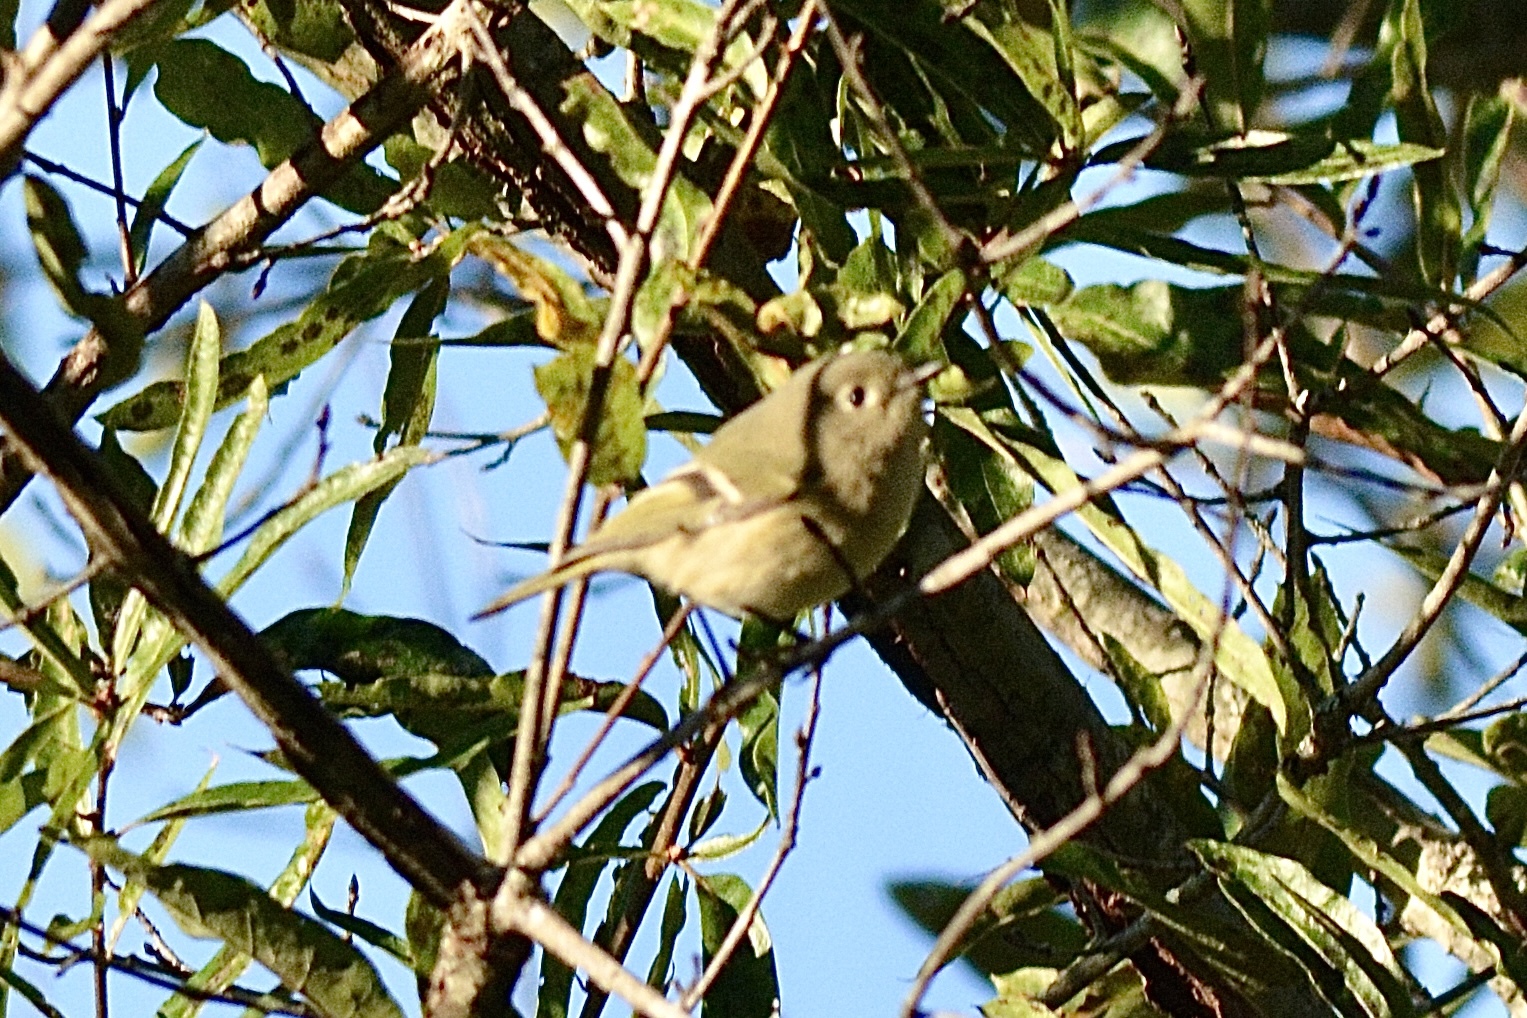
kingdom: Animalia
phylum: Chordata
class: Aves
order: Passeriformes
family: Regulidae
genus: Regulus
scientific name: Regulus calendula
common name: Ruby-crowned kinglet
